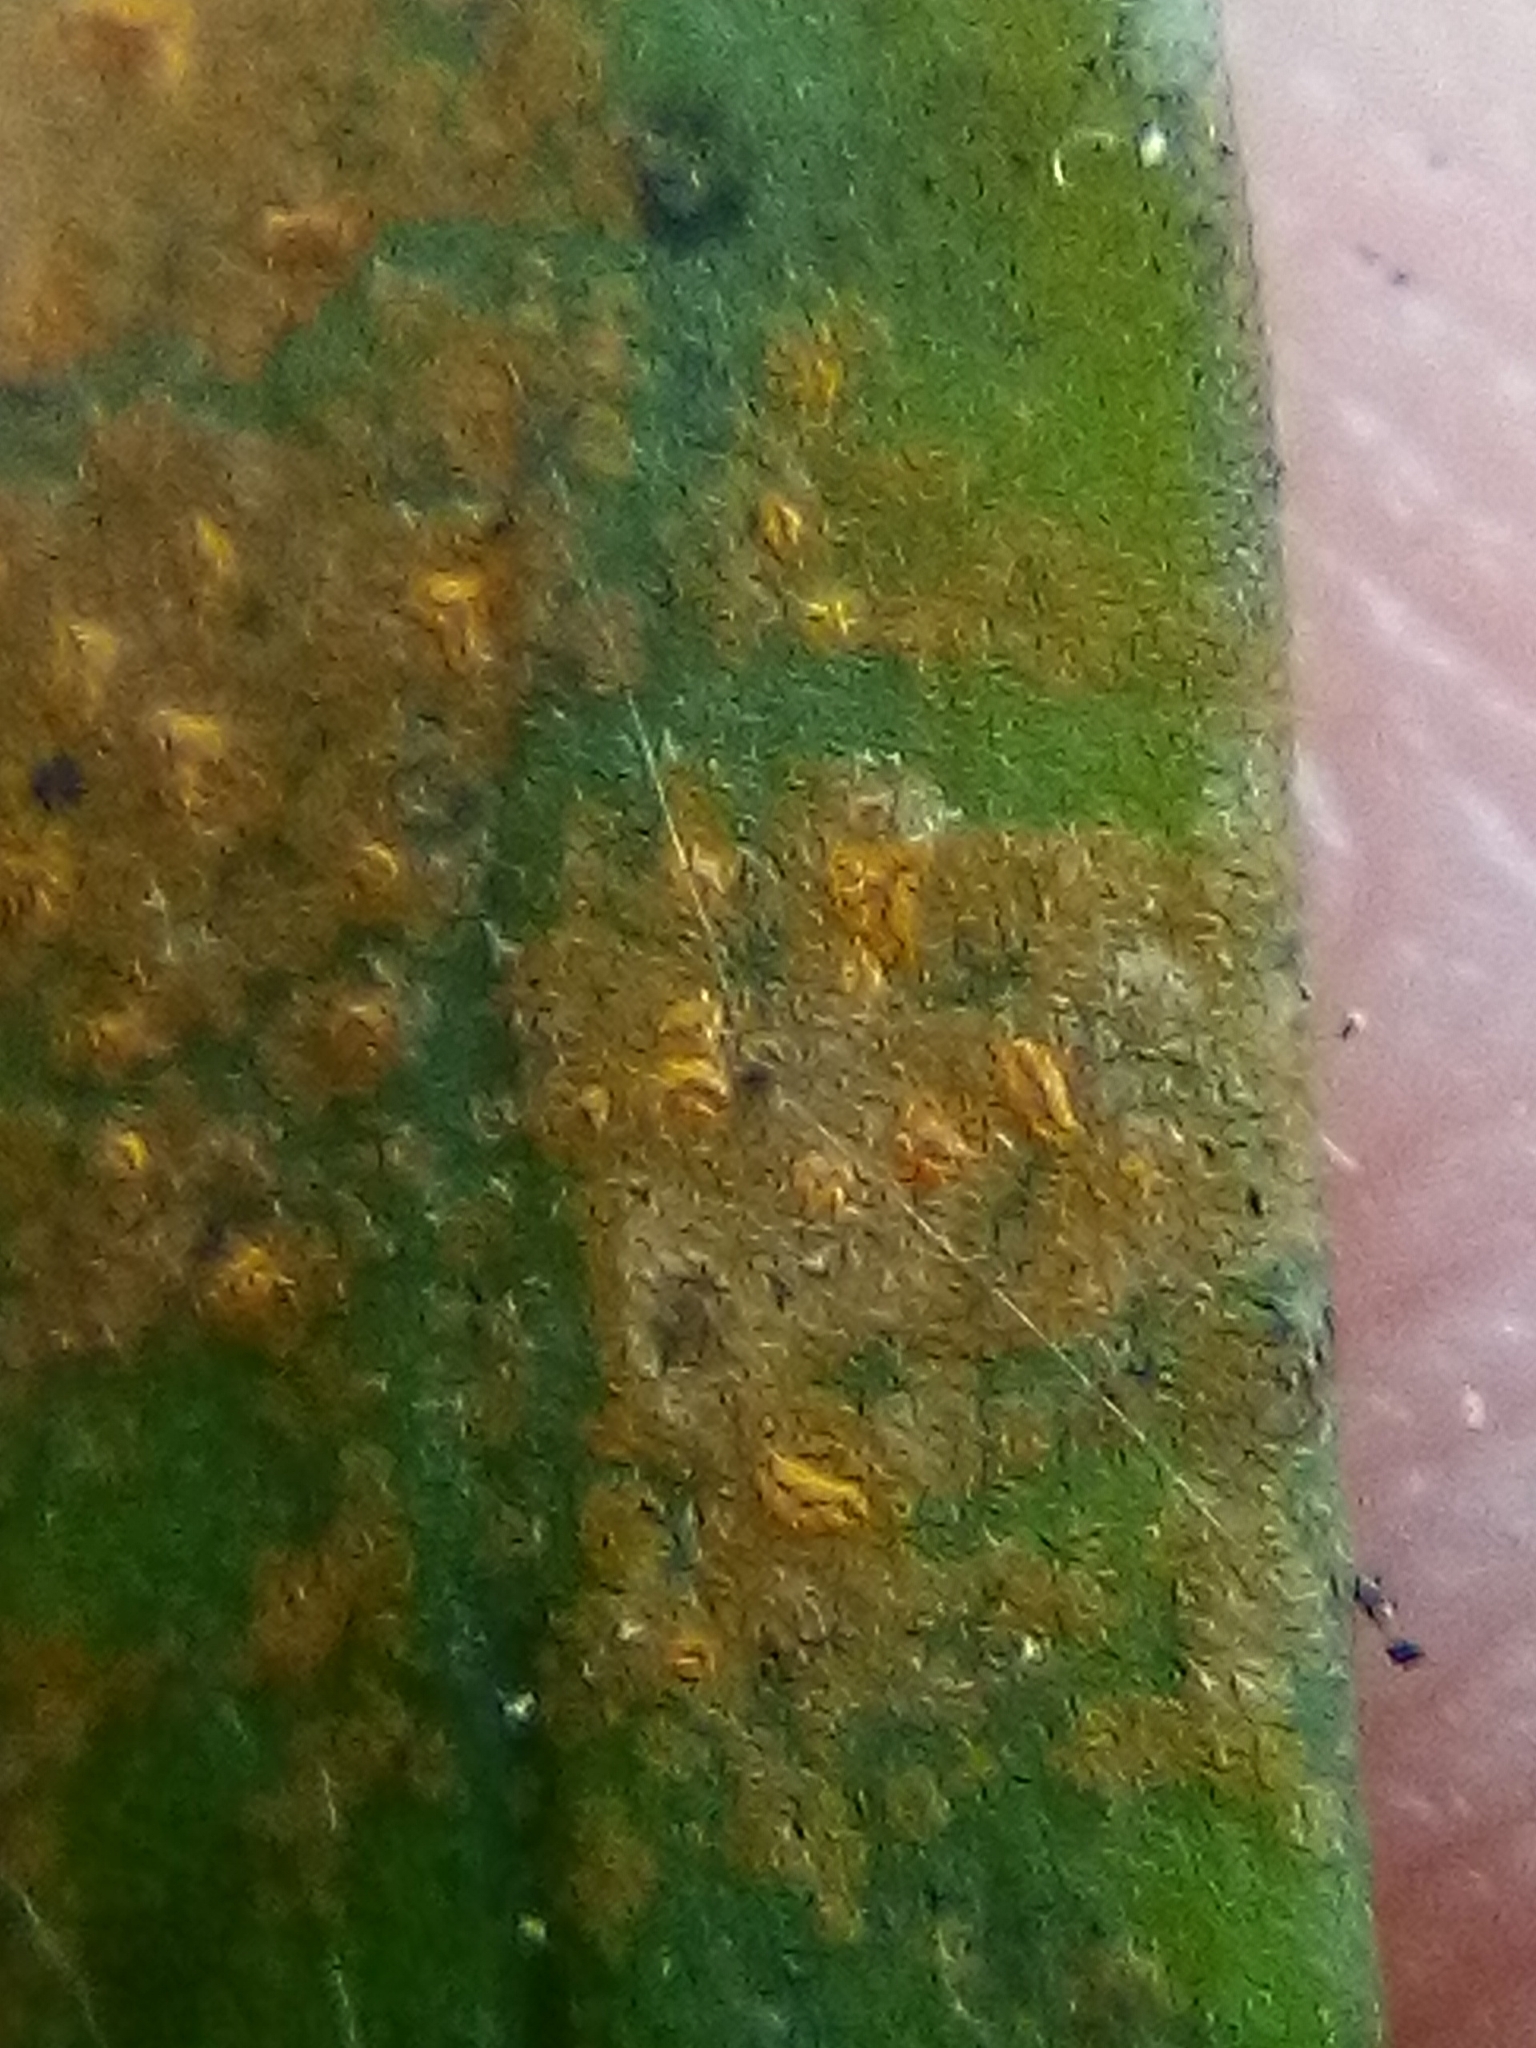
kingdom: Fungi
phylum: Ascomycota
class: Arthoniomycetes
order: Arthoniales
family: Roccellaceae
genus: Enterographa
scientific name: Enterographa bella
